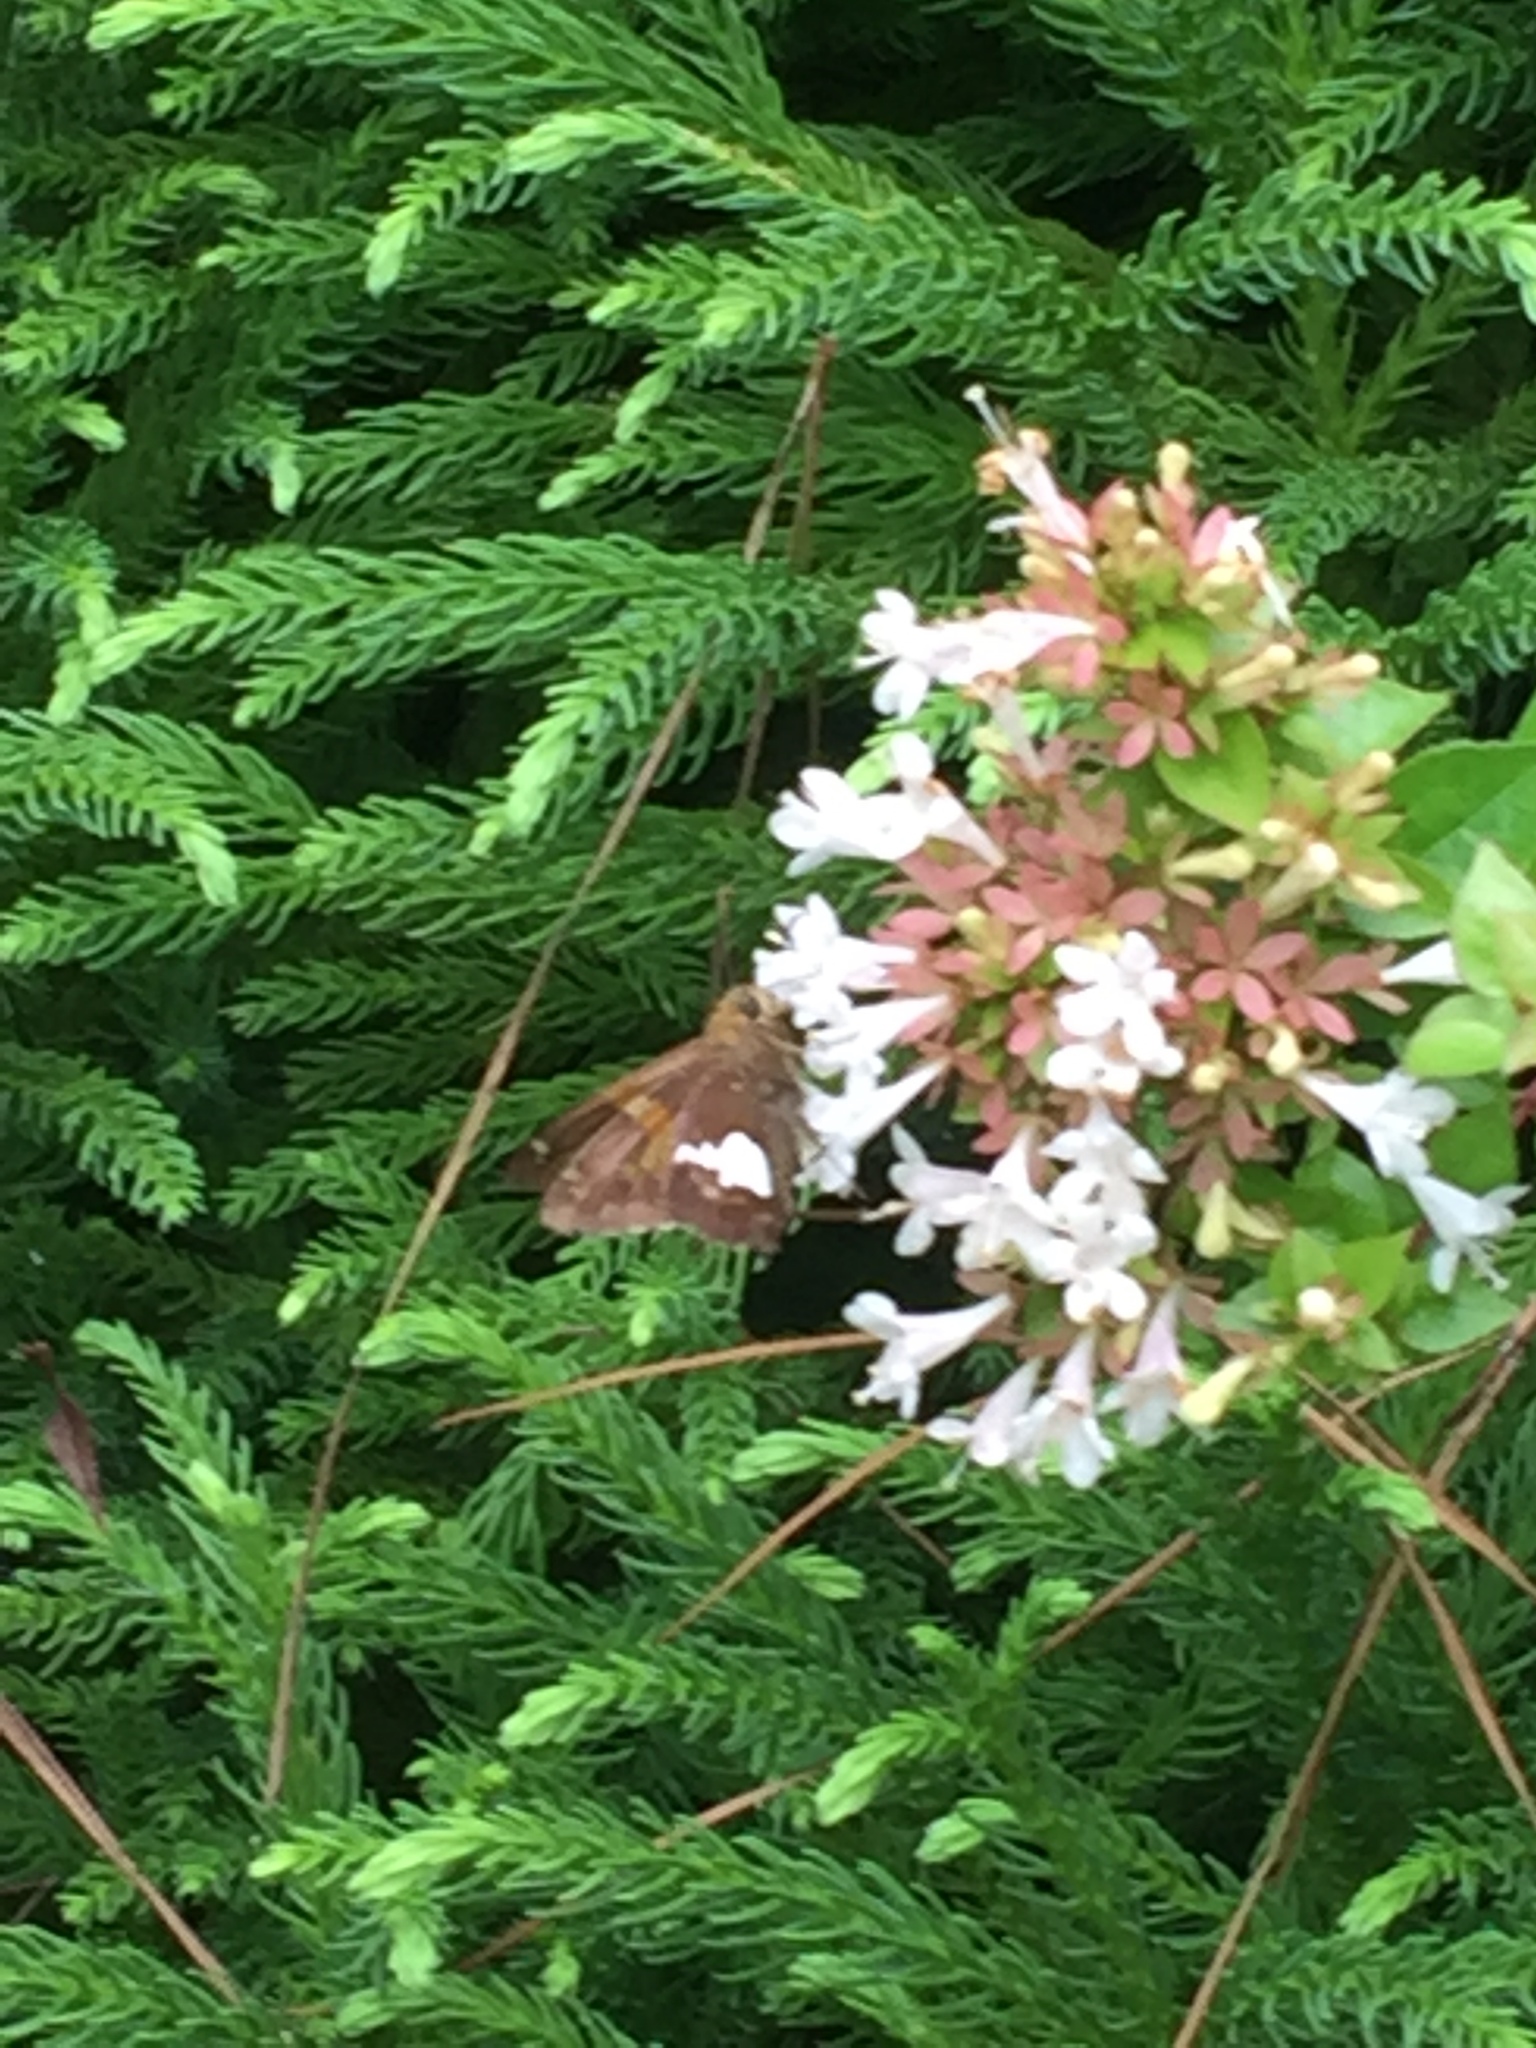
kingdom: Animalia
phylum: Arthropoda
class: Insecta
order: Lepidoptera
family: Hesperiidae
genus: Epargyreus
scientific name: Epargyreus clarus
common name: Silver-spotted skipper
